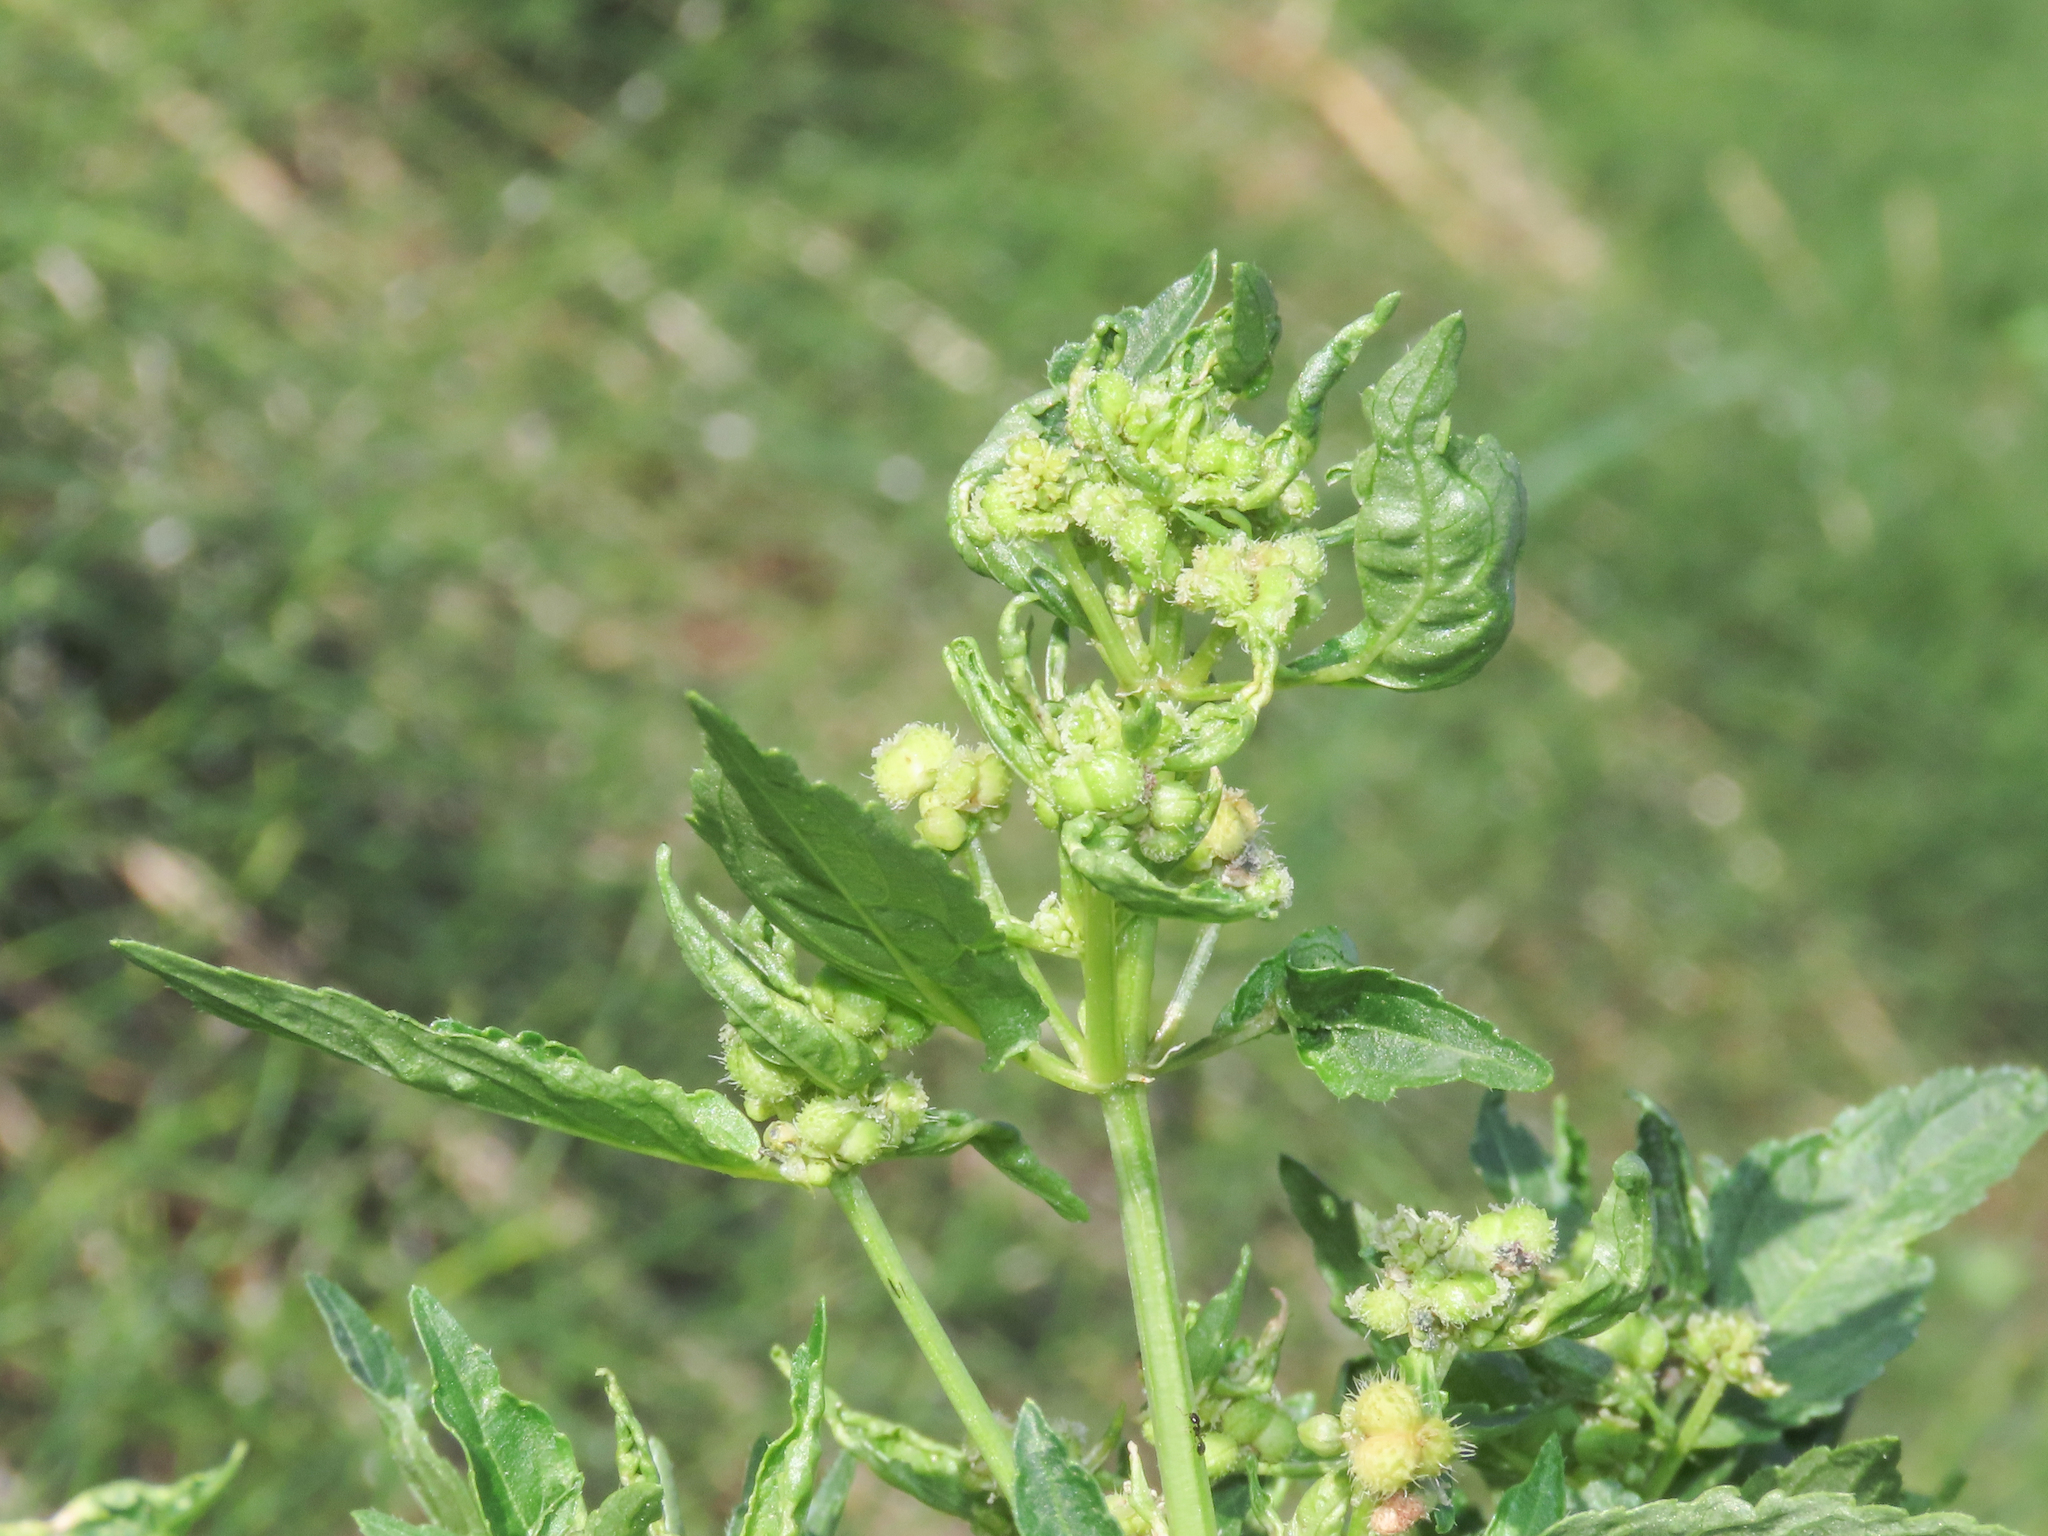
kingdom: Plantae
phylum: Tracheophyta
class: Magnoliopsida
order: Malpighiales
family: Euphorbiaceae
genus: Mercurialis
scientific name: Mercurialis annua
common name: Annual mercury
